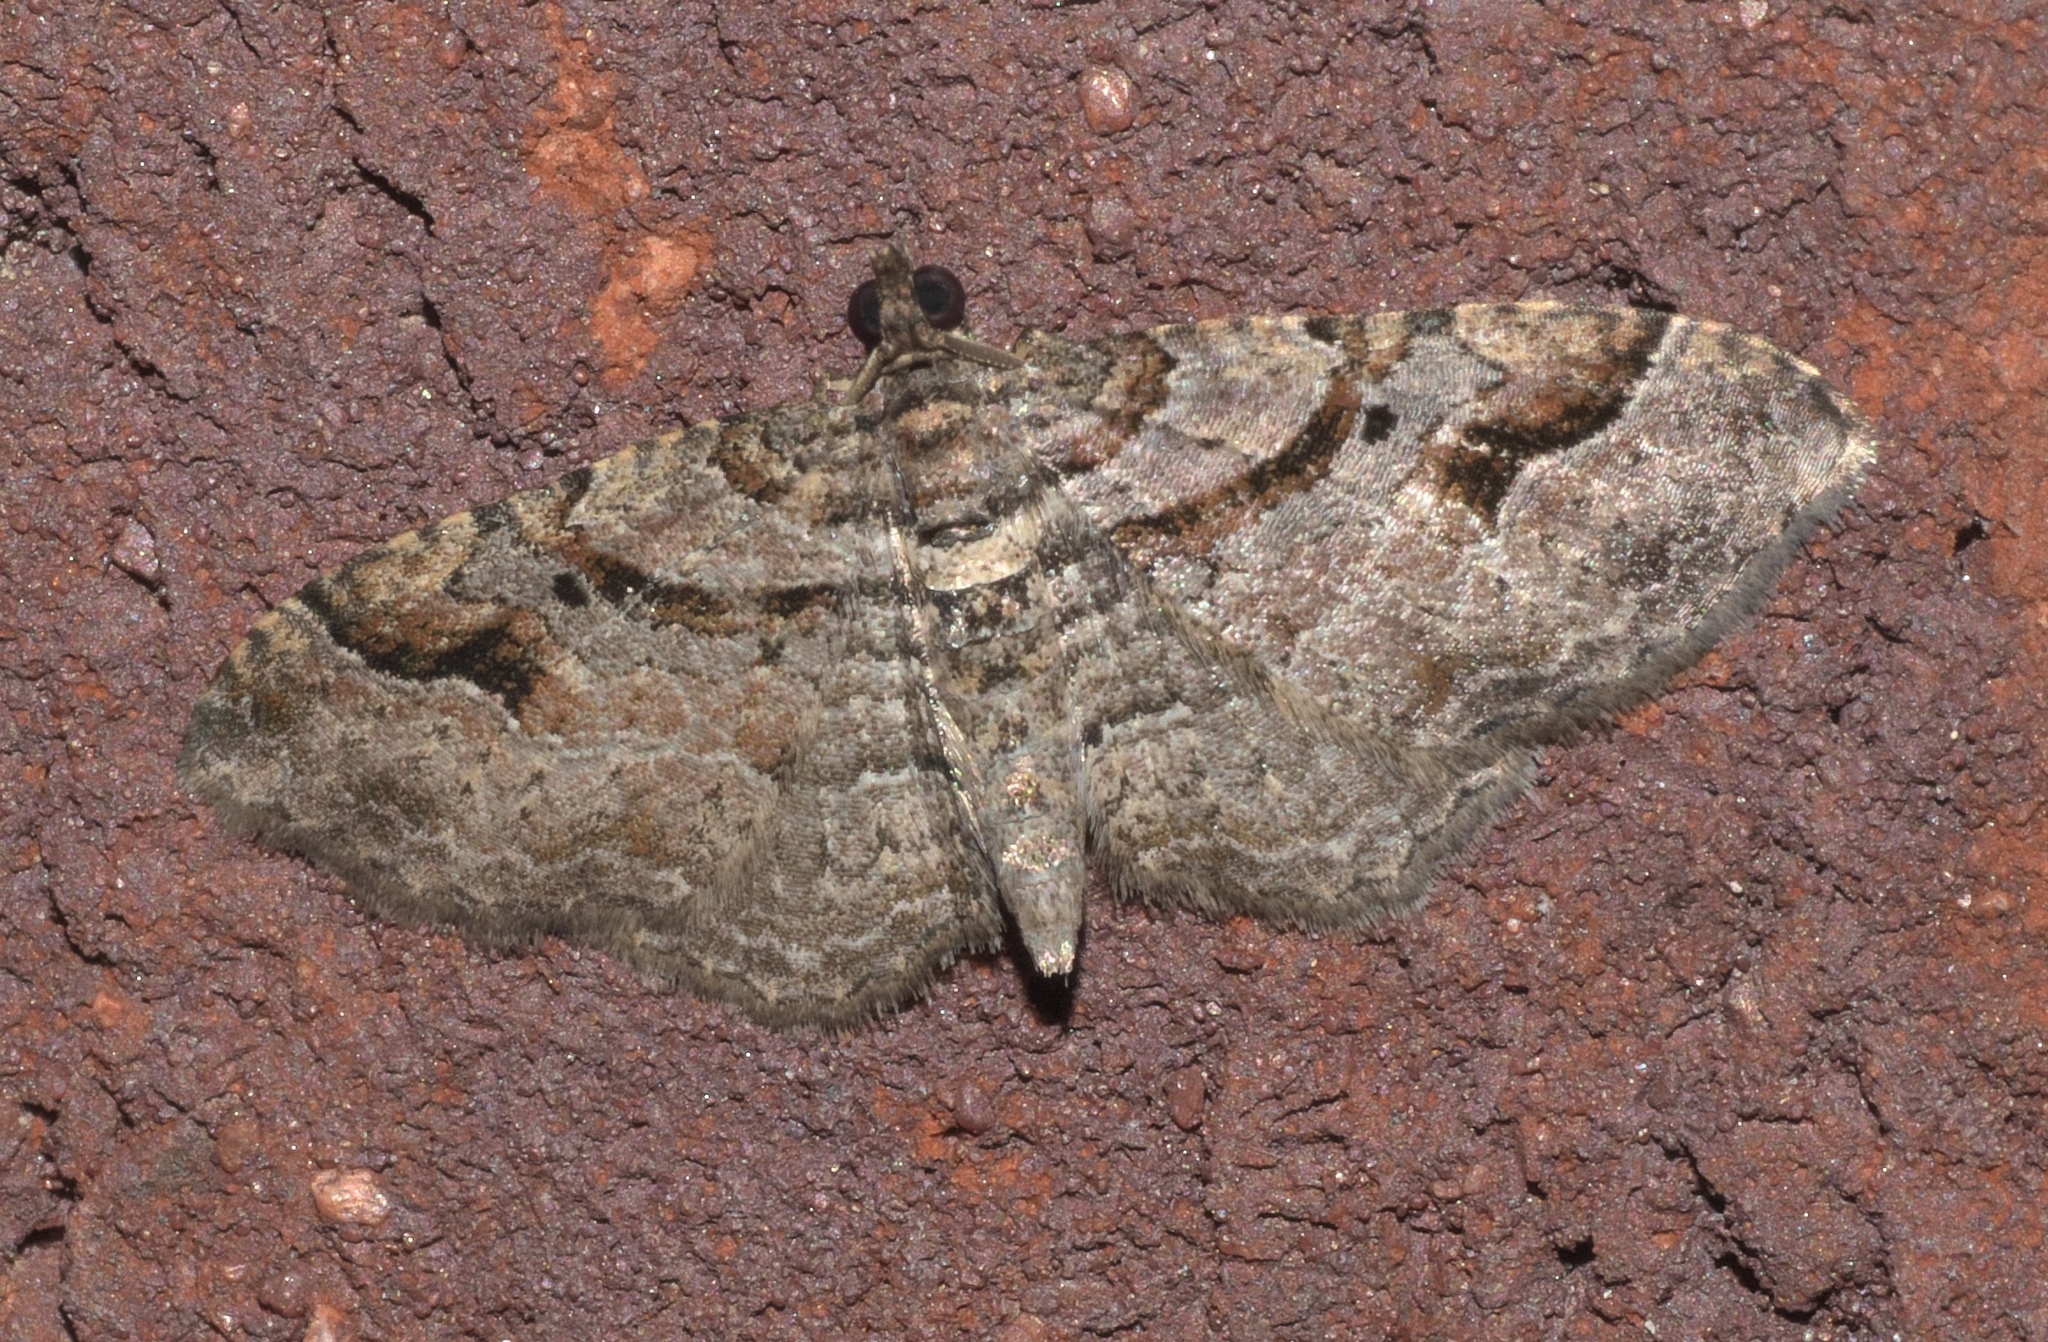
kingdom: Animalia
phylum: Arthropoda
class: Insecta
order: Lepidoptera
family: Geometridae
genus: Costaconvexa
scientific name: Costaconvexa centrostrigaria
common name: Bent-line carpet
